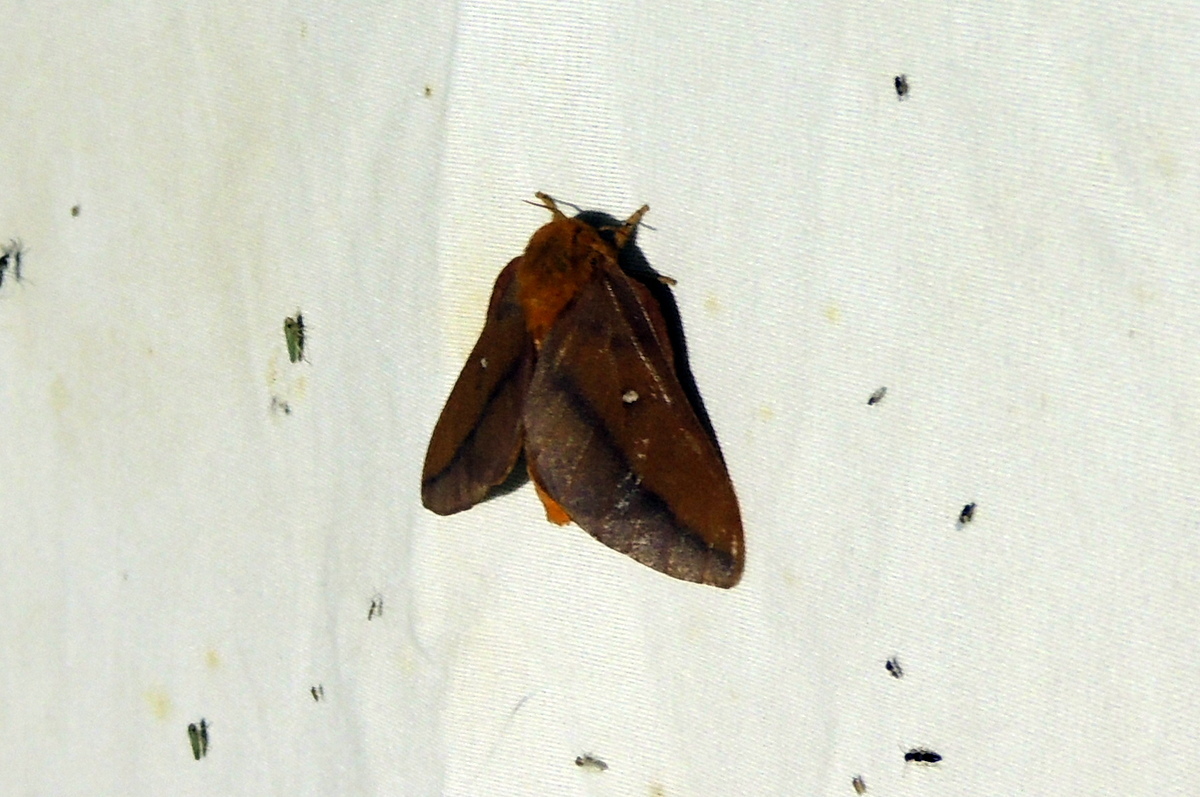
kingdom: Animalia
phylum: Arthropoda
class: Insecta
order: Lepidoptera
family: Saturniidae
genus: Anisota
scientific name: Anisota virginiensis
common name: Pink striped oakworm moth
